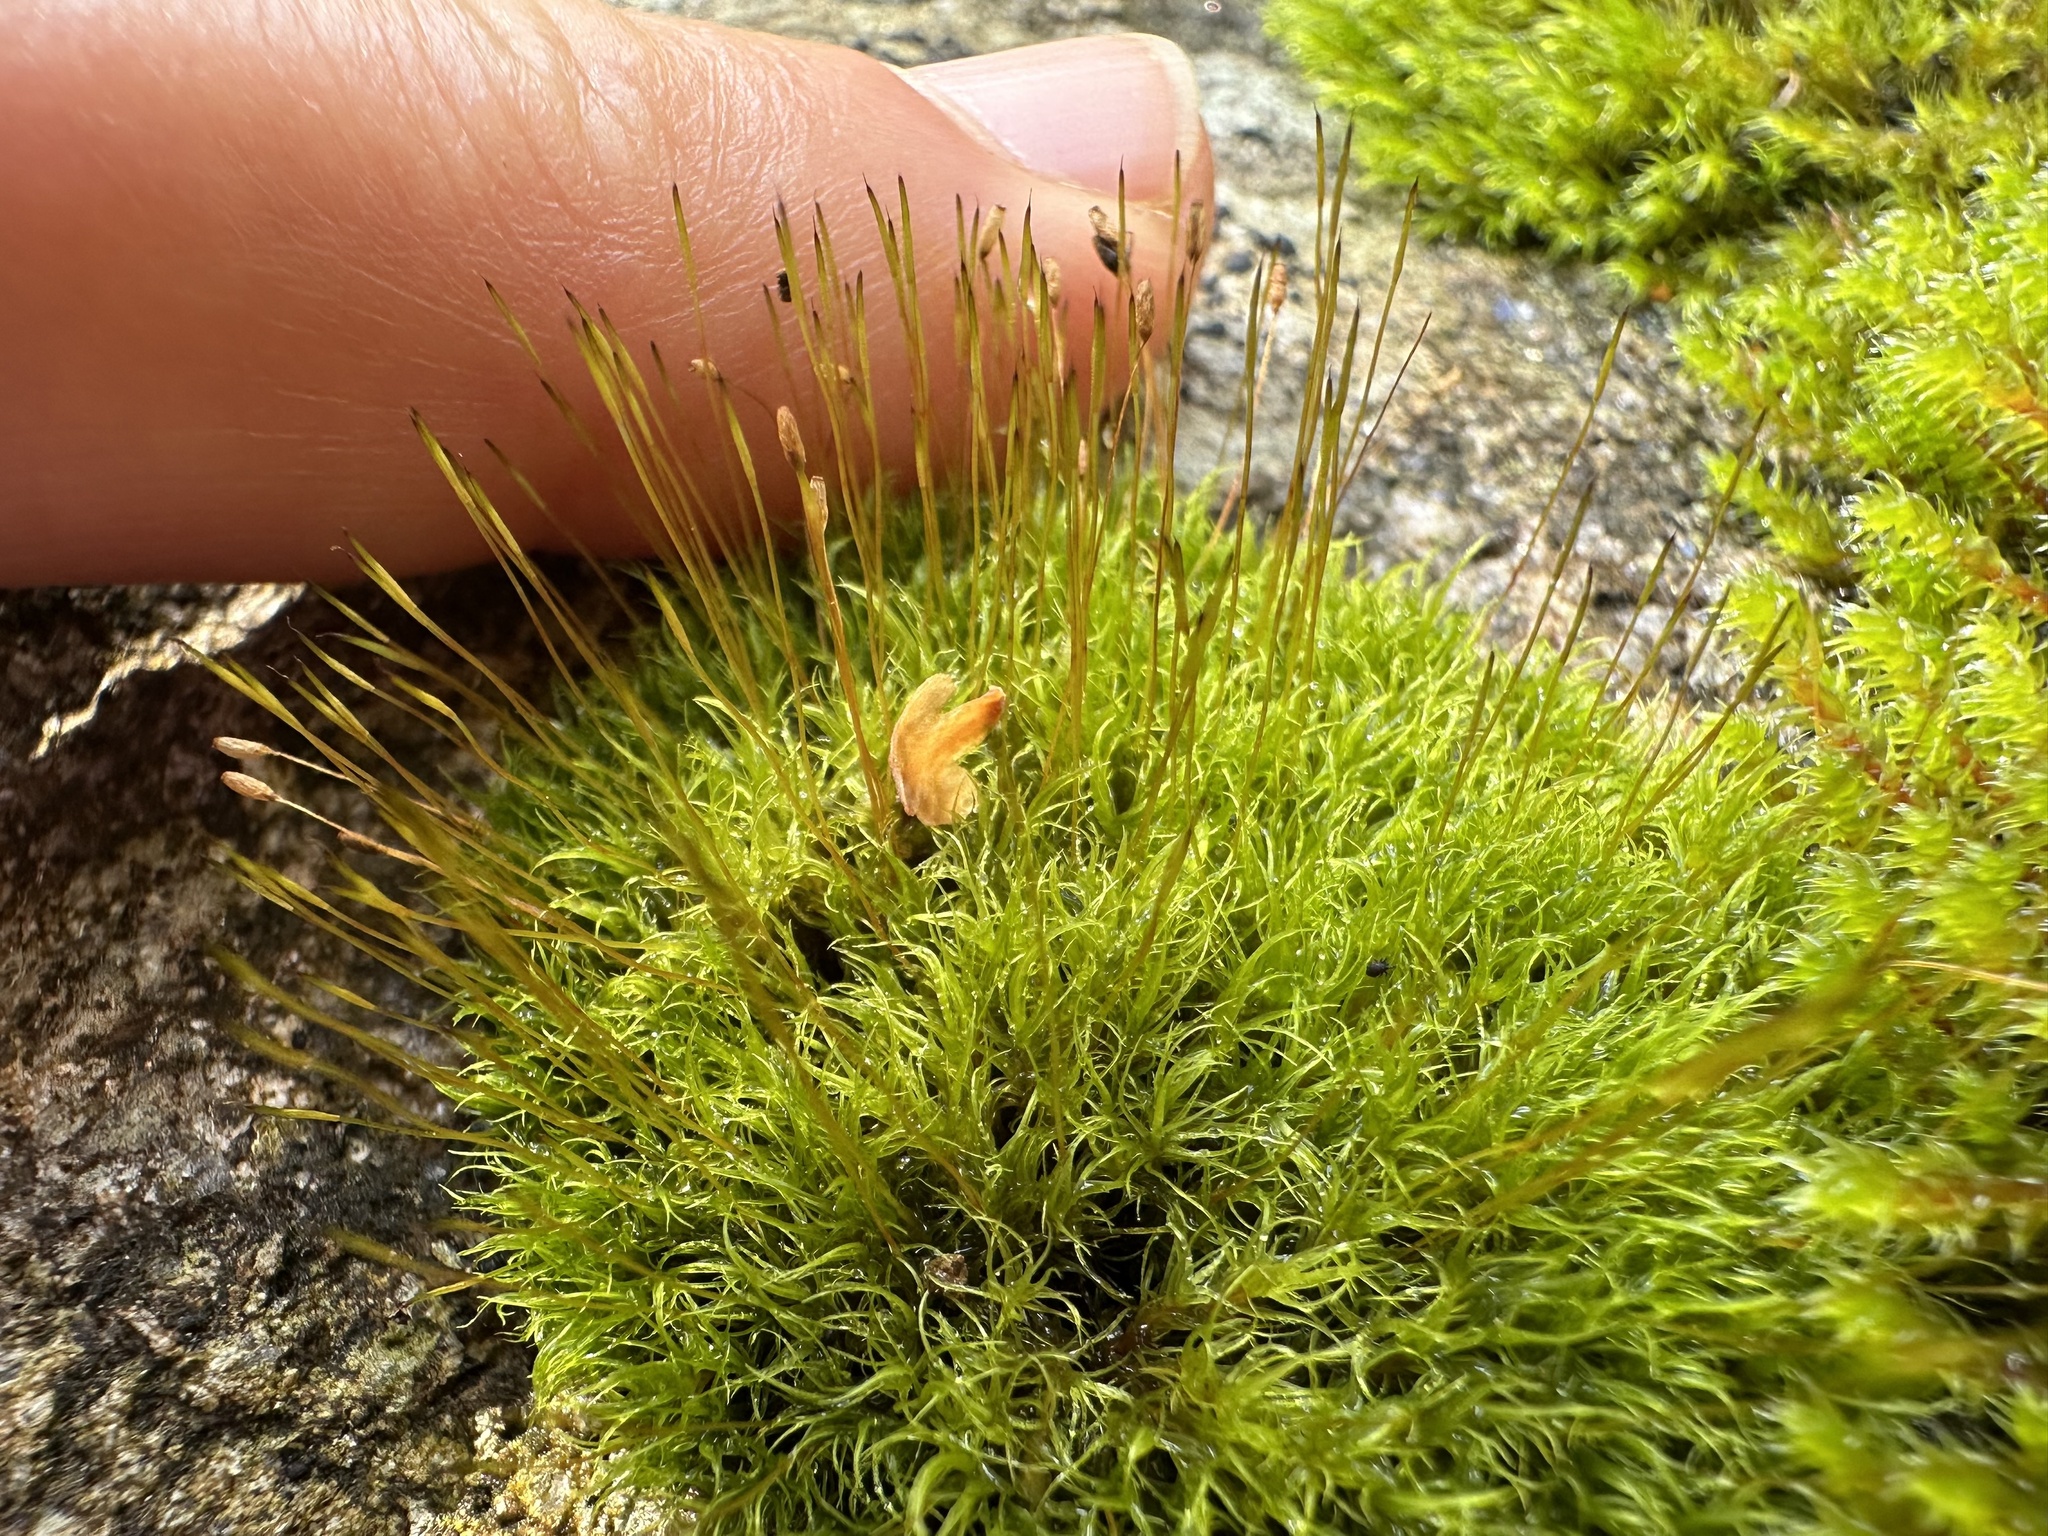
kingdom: Plantae
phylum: Bryophyta
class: Bryopsida
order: Dicranales
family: Rhabdoweisiaceae
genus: Dicranoweisia
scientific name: Dicranoweisia cirrata
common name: Common pincushion
